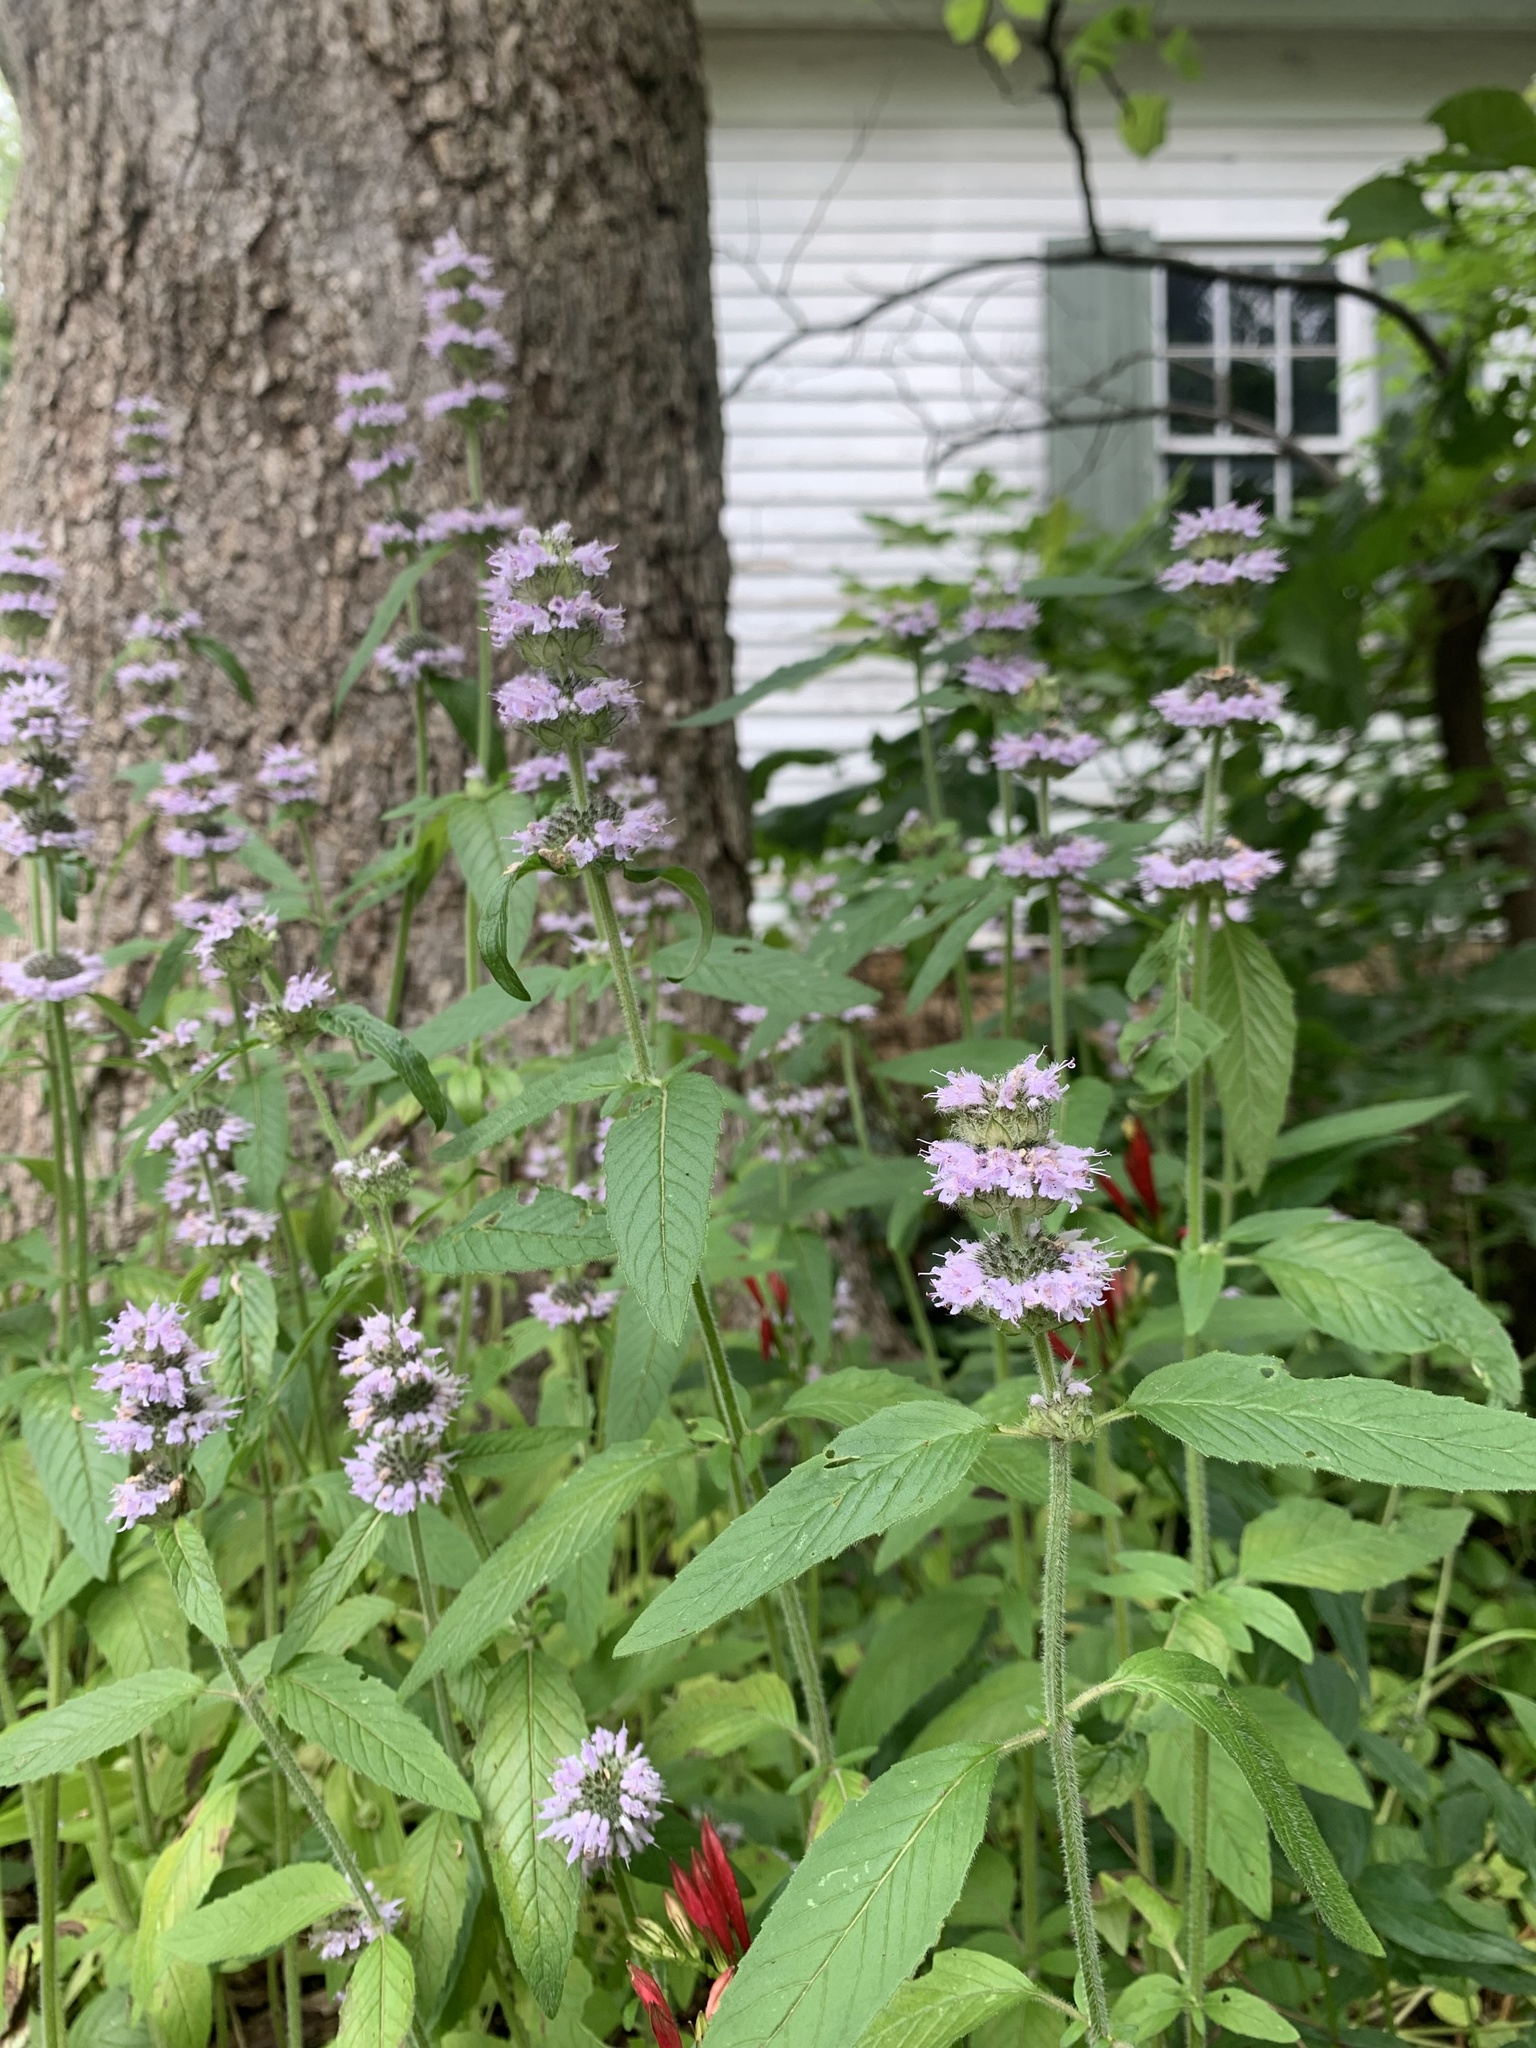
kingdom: Plantae
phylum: Tracheophyta
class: Magnoliopsida
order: Lamiales
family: Lamiaceae
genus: Blephilia
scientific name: Blephilia ciliata
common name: Downy blephilia
